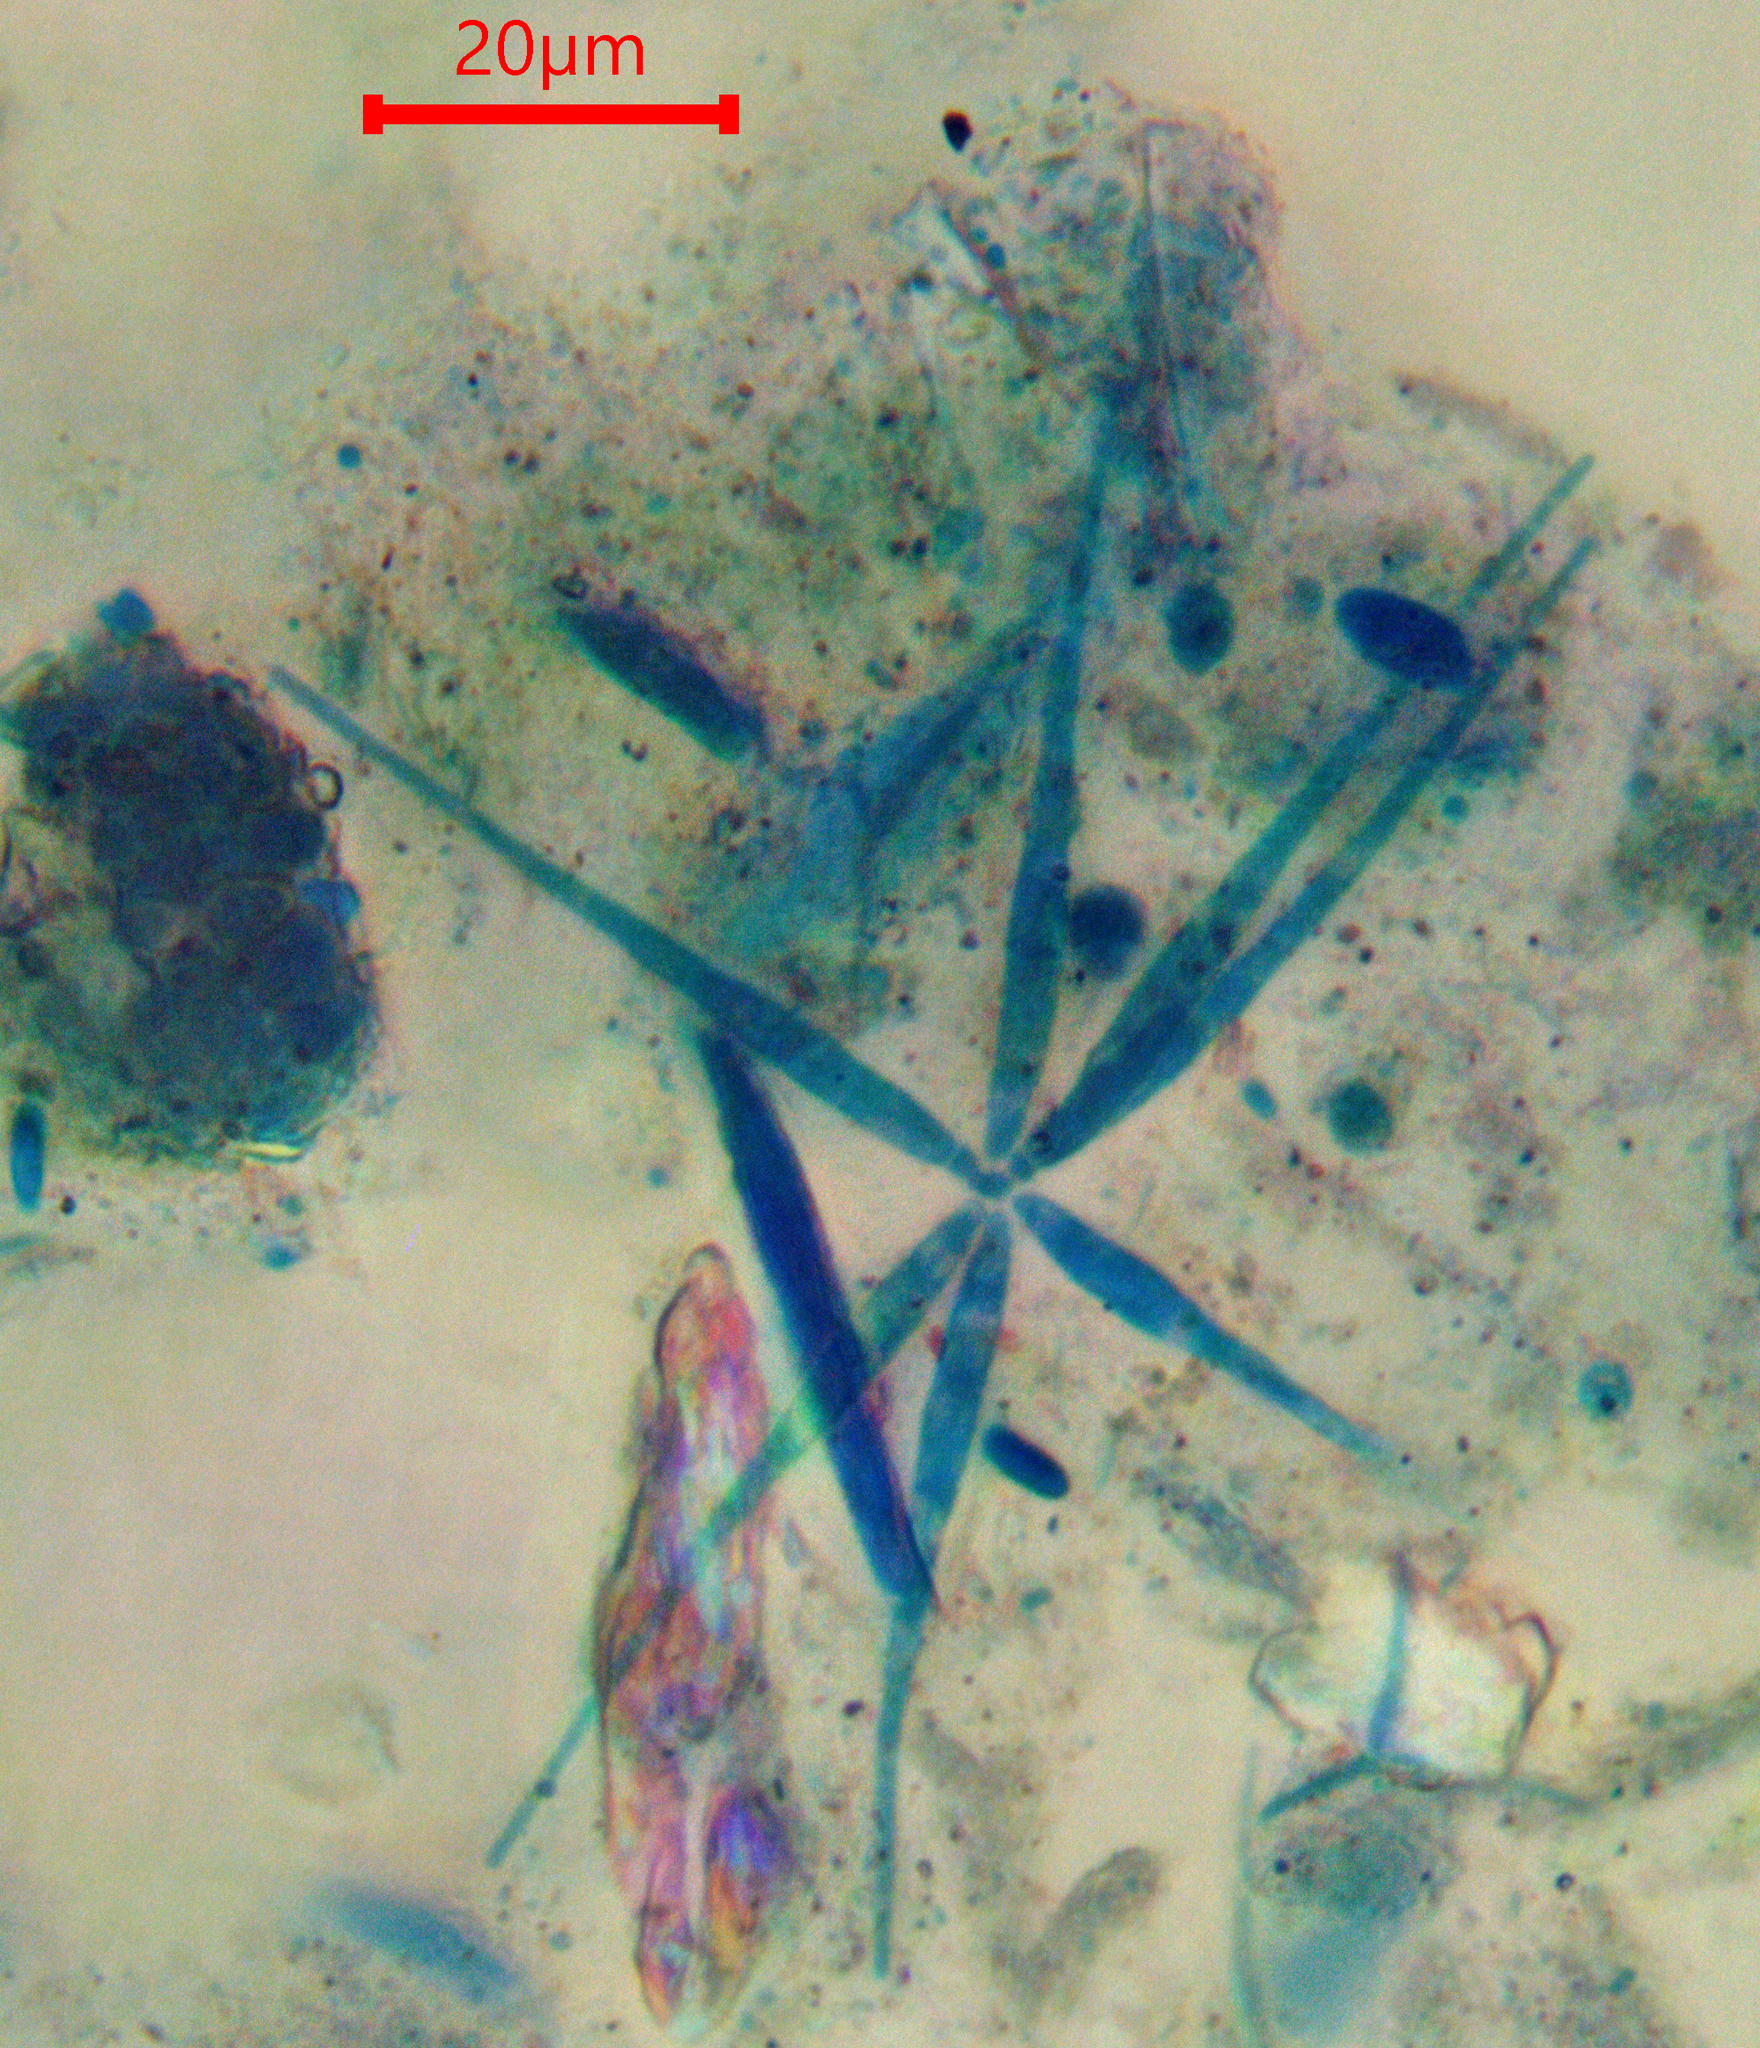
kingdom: Fungi
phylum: Ascomycota
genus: Flabellospora
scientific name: Flabellospora acuminata
